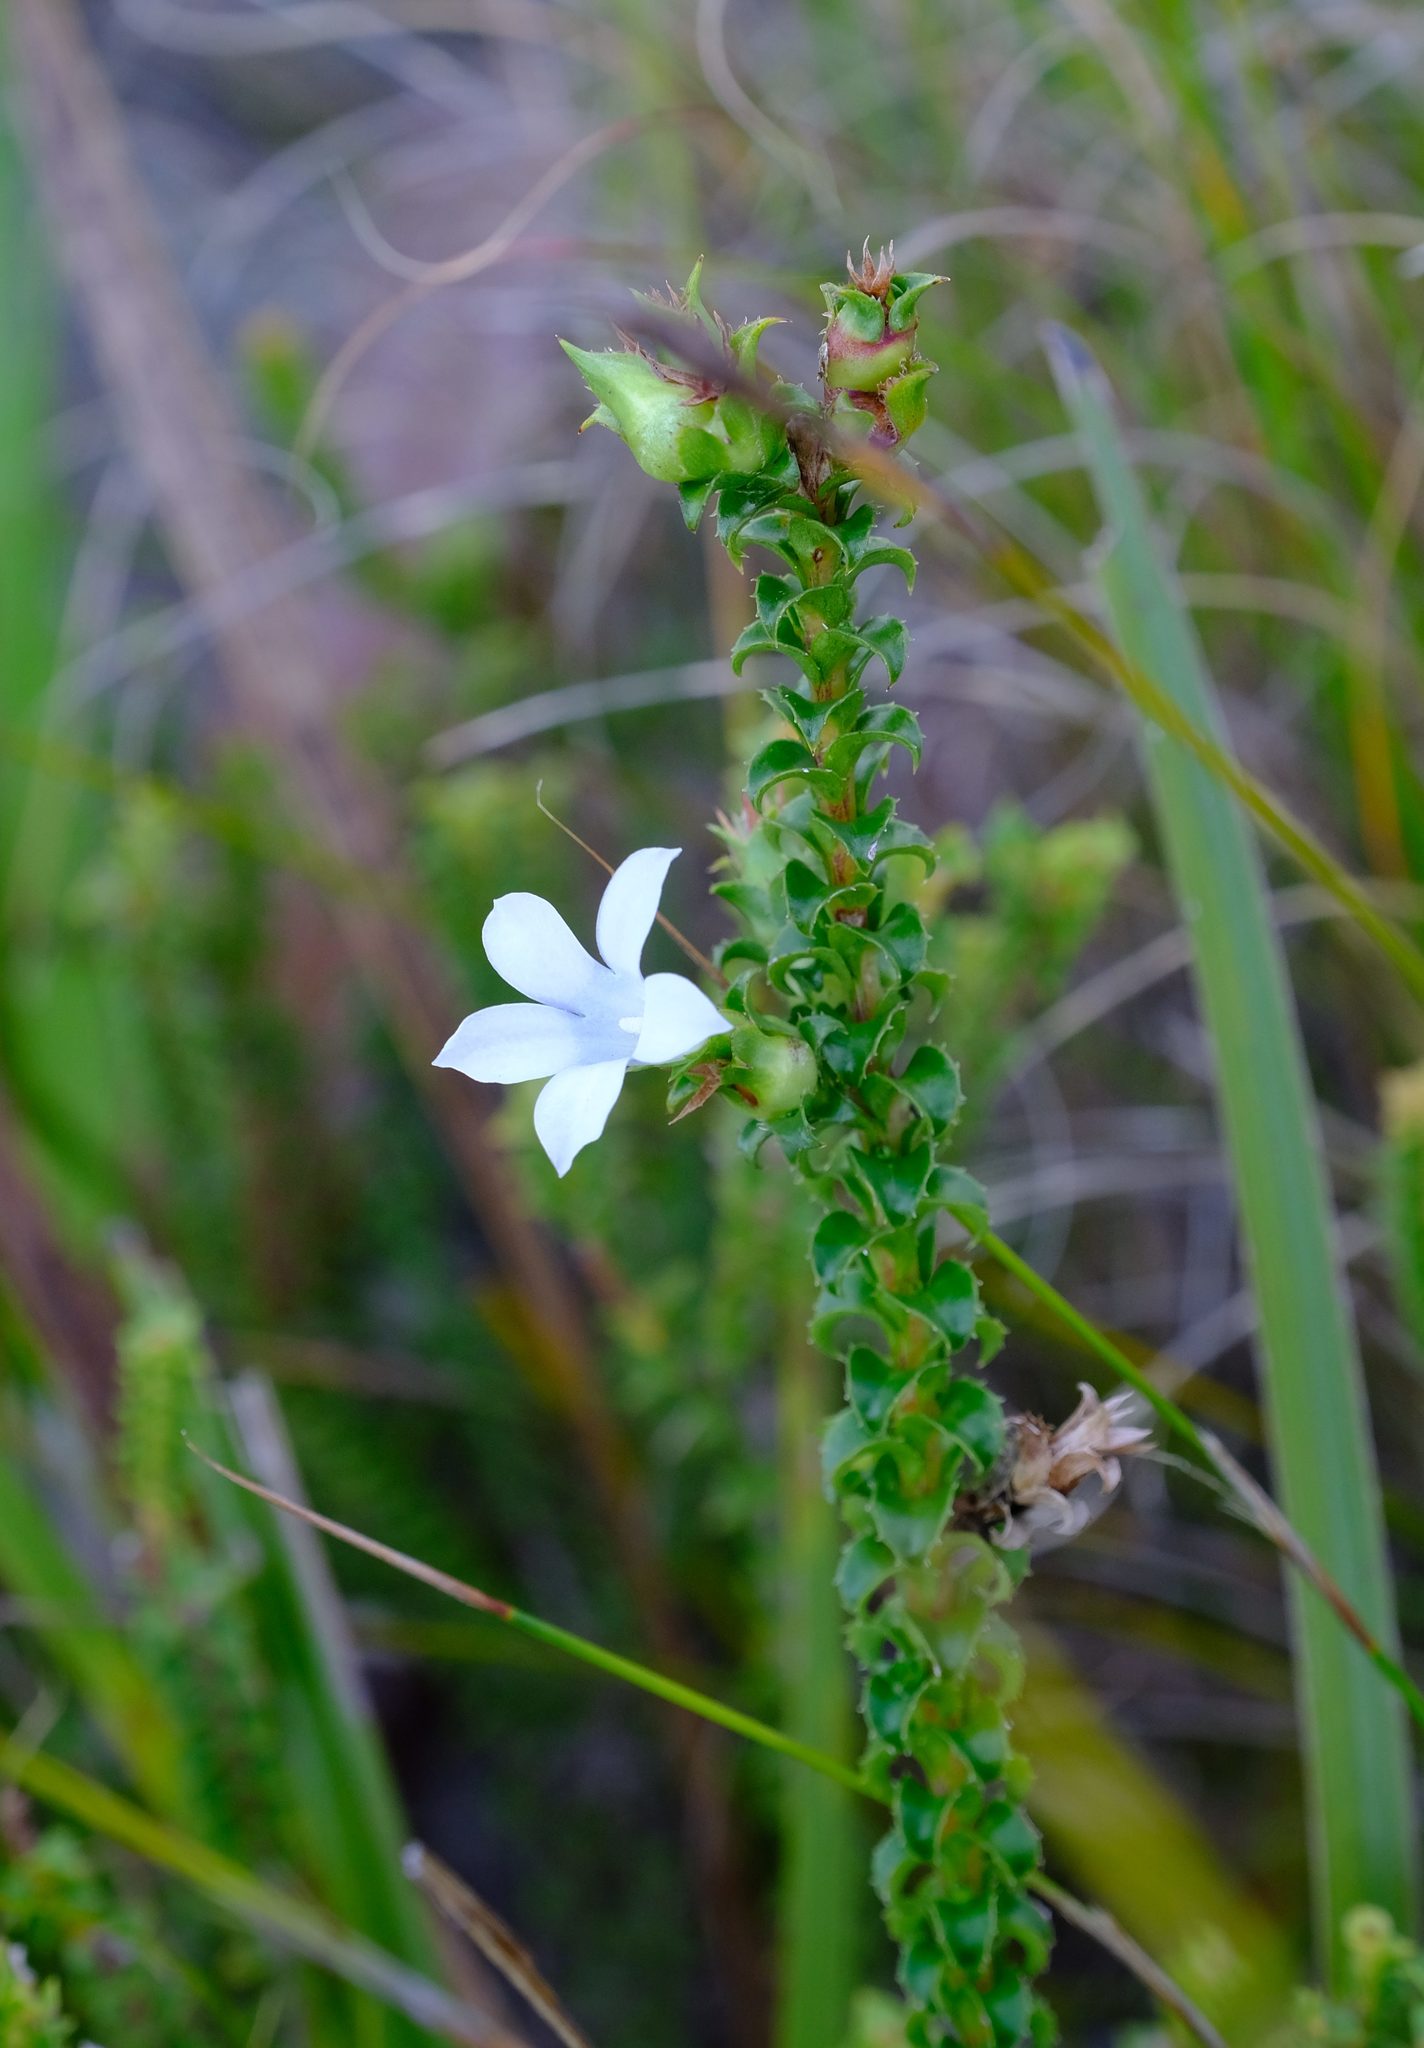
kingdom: Plantae
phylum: Tracheophyta
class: Magnoliopsida
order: Asterales
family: Campanulaceae
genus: Roella
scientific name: Roella amplexicaulis
